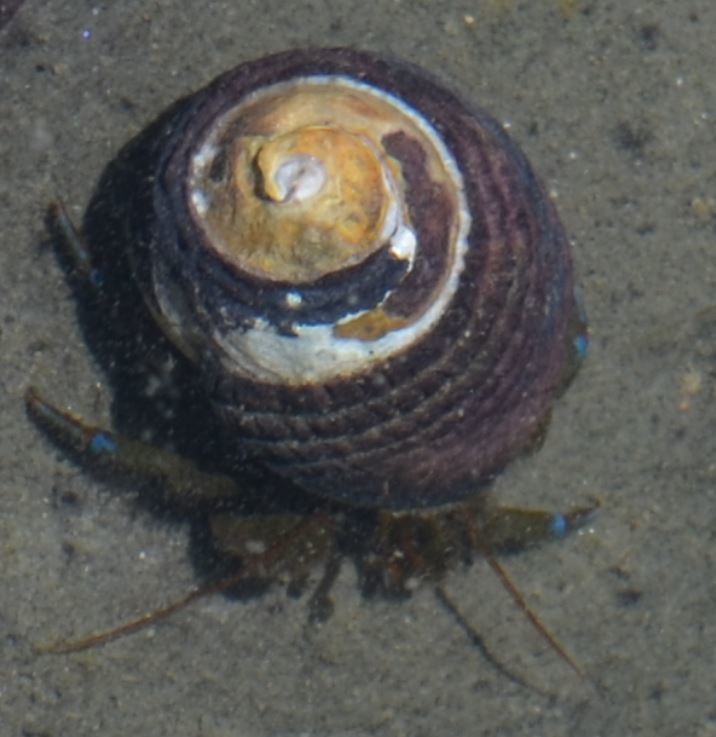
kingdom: Animalia
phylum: Arthropoda
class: Malacostraca
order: Decapoda
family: Paguridae
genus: Pagurus
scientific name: Pagurus samuelis
